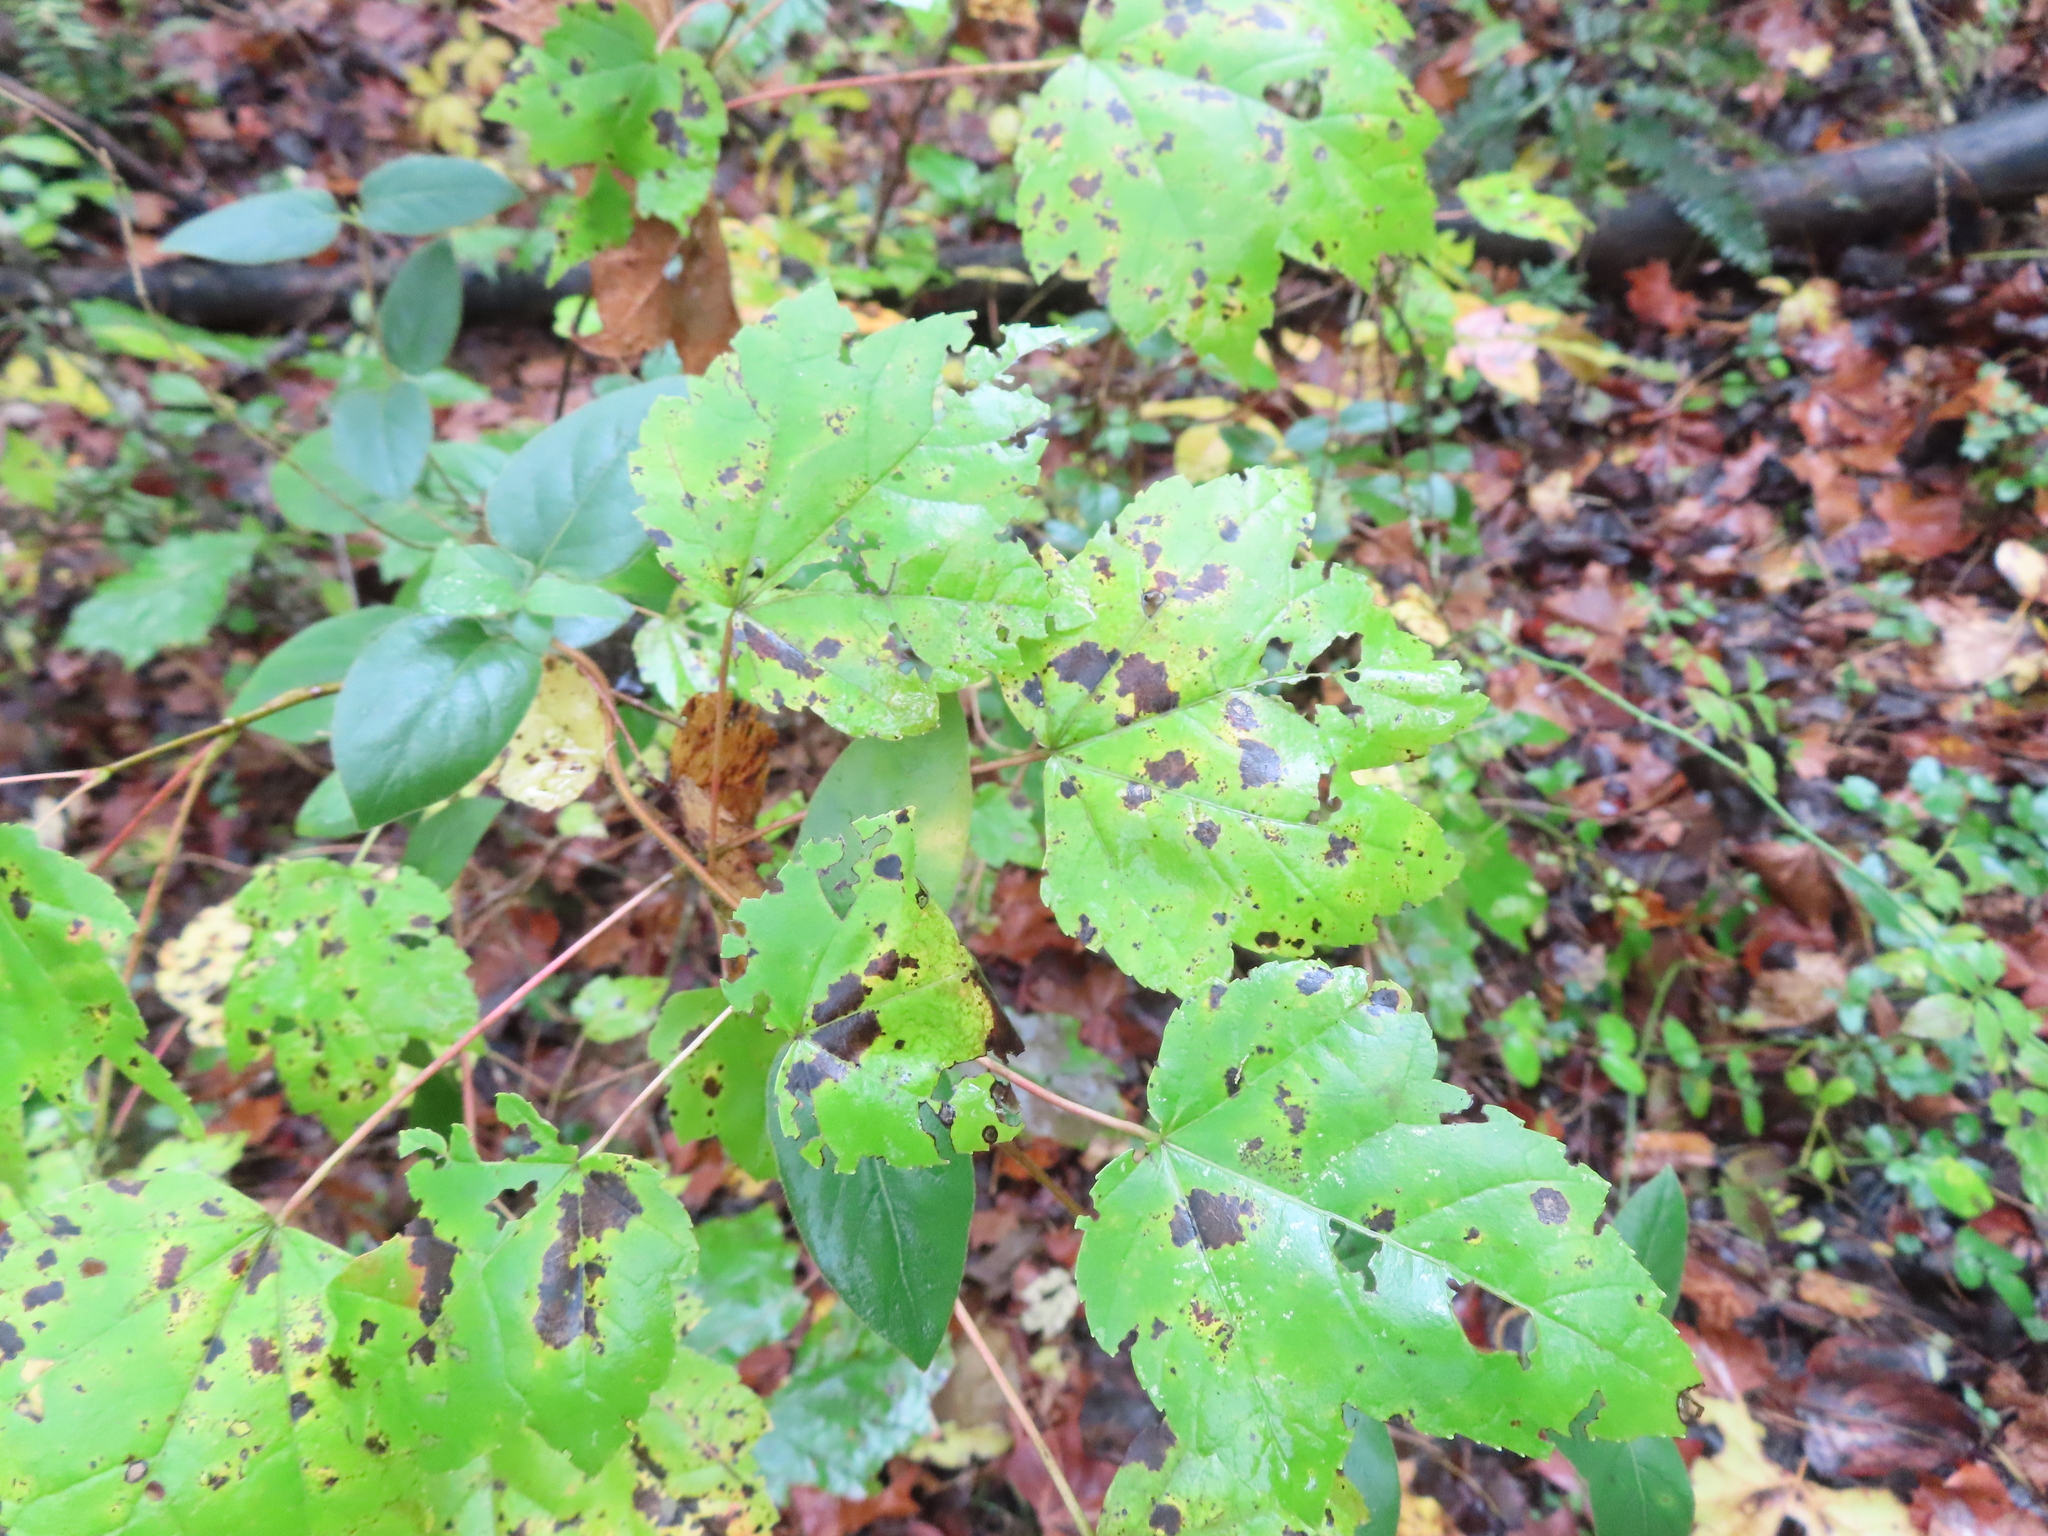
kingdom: Plantae
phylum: Tracheophyta
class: Magnoliopsida
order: Sapindales
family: Sapindaceae
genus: Acer
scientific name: Acer rubrum
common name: Red maple
